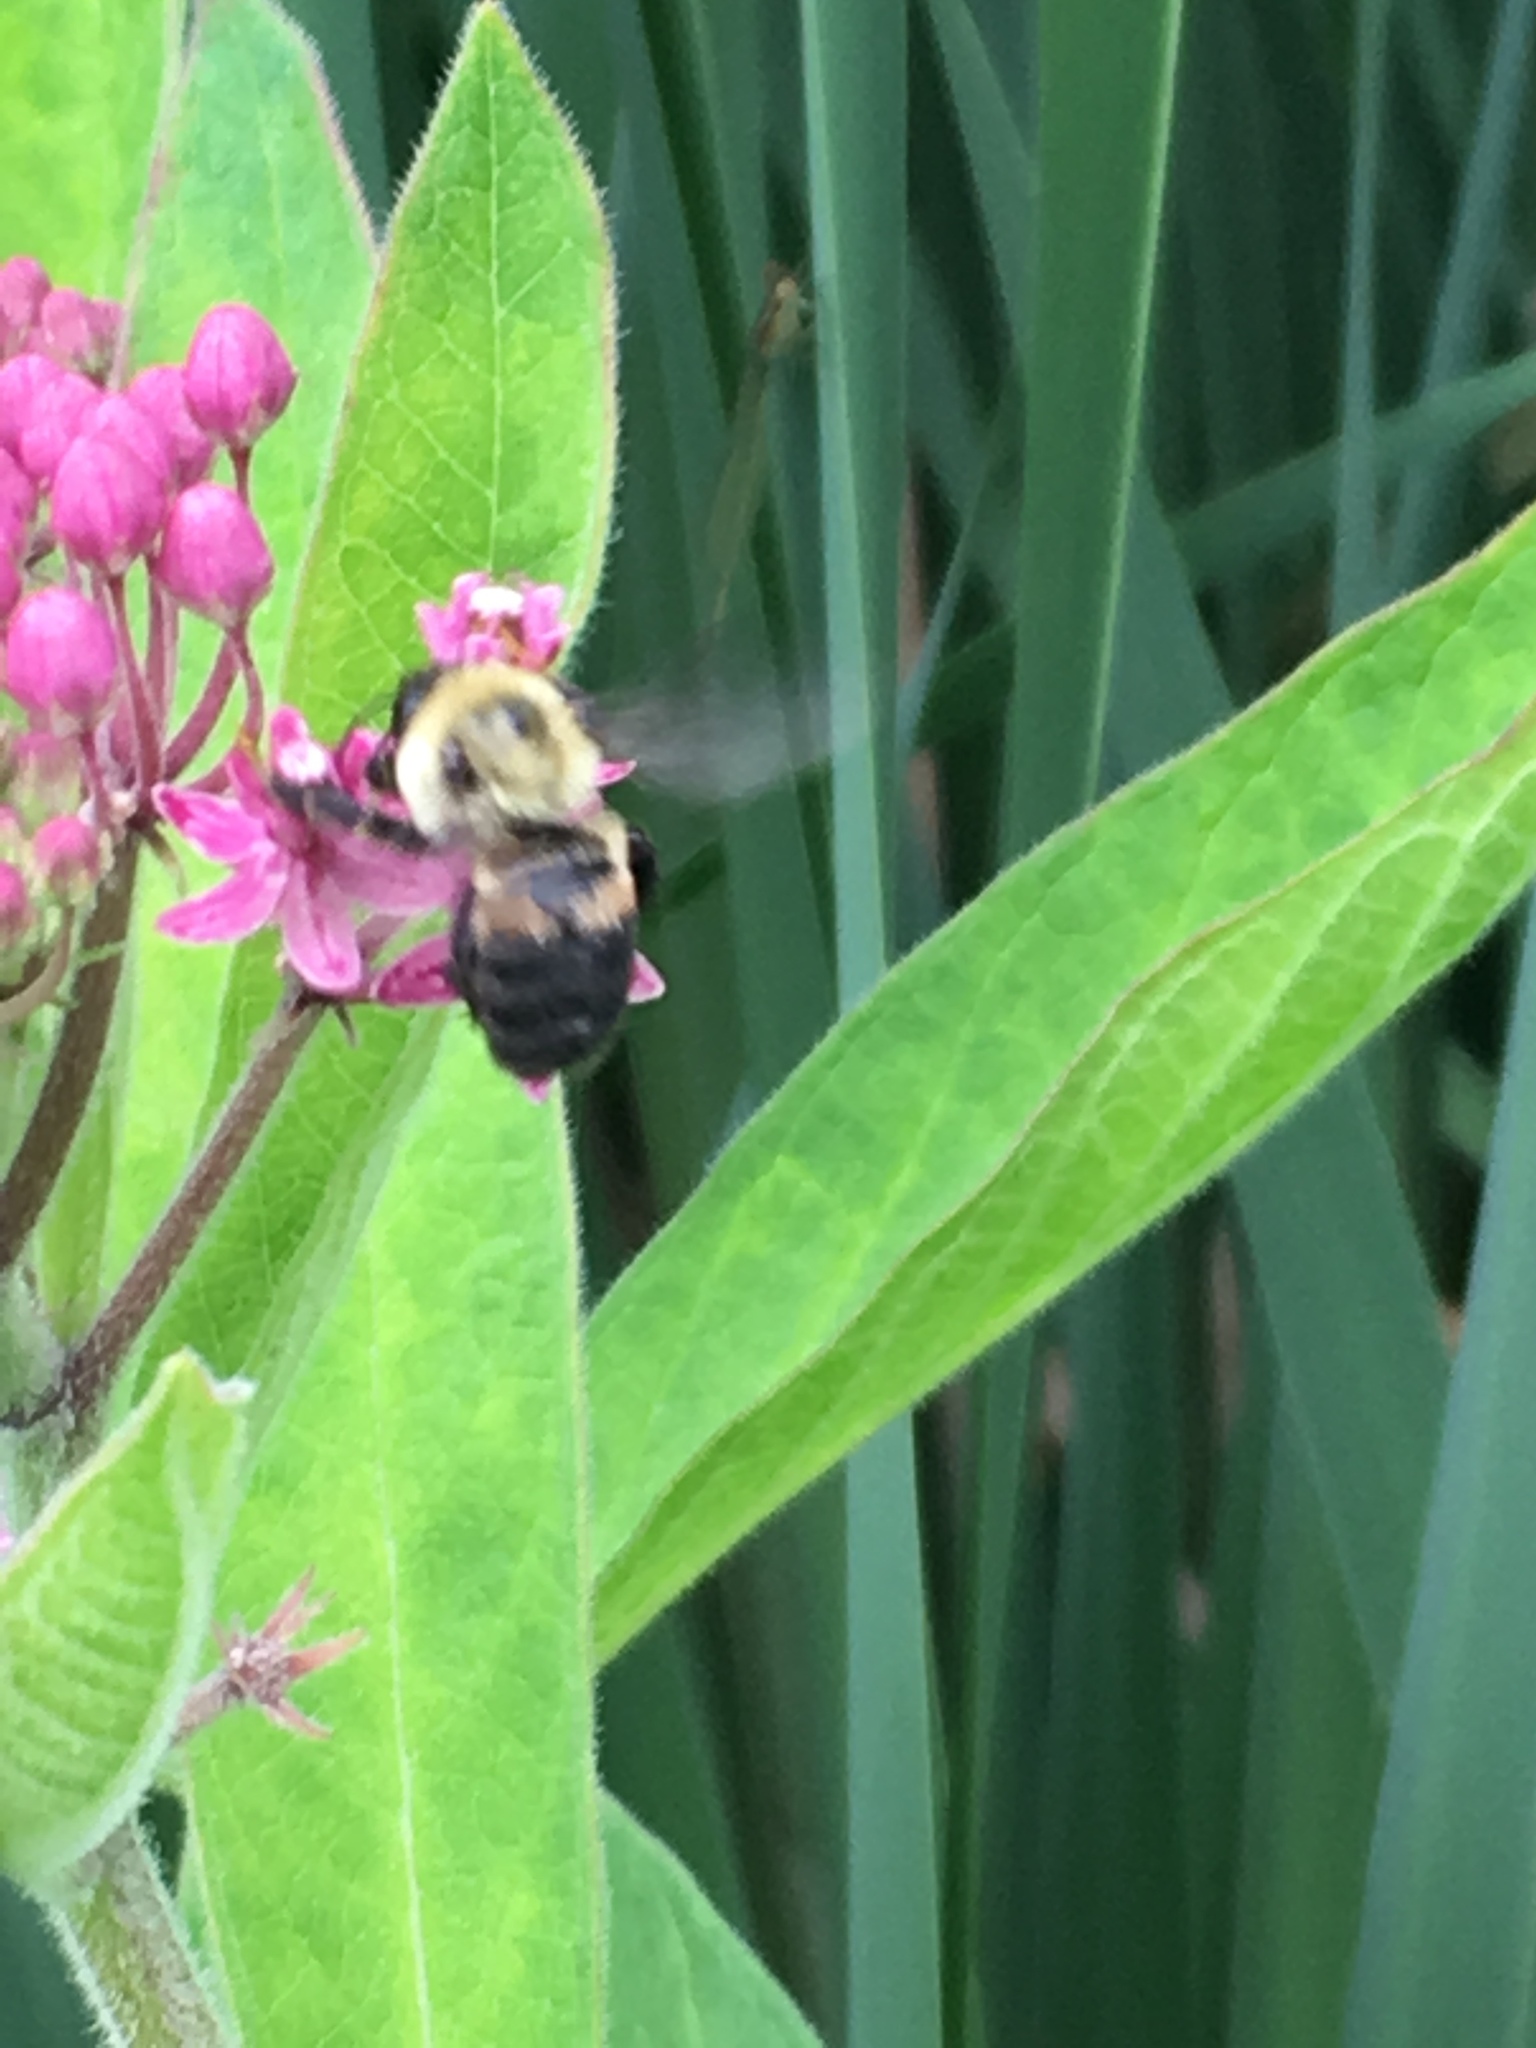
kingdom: Animalia
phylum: Arthropoda
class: Insecta
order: Hymenoptera
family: Apidae
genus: Bombus
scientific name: Bombus griseocollis
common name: Brown-belted bumble bee
